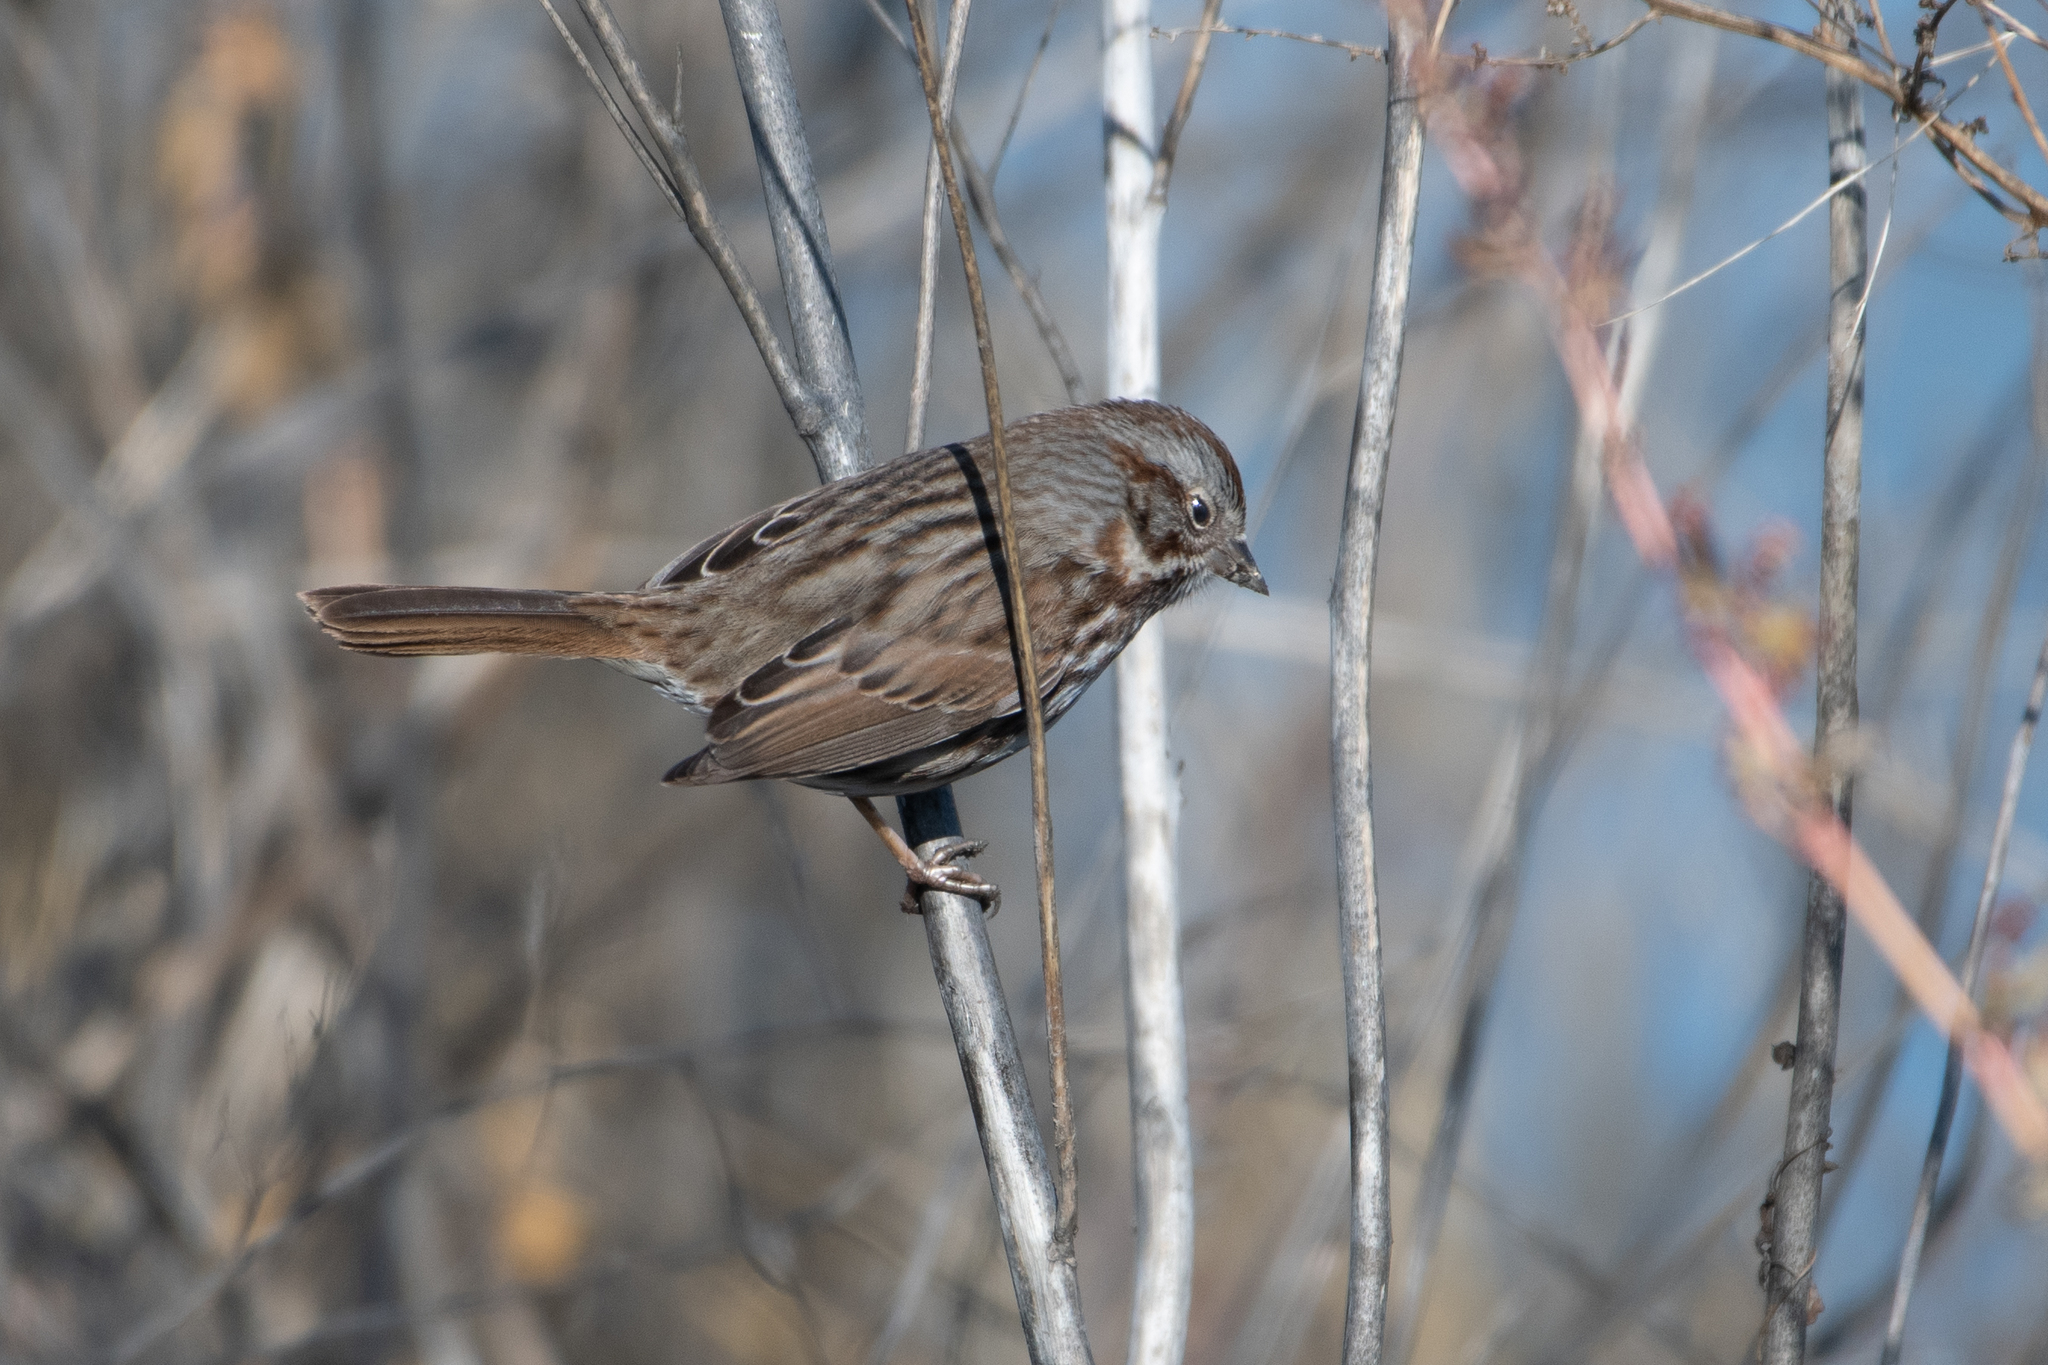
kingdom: Animalia
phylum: Chordata
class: Aves
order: Passeriformes
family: Passerellidae
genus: Melospiza
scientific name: Melospiza melodia
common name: Song sparrow
